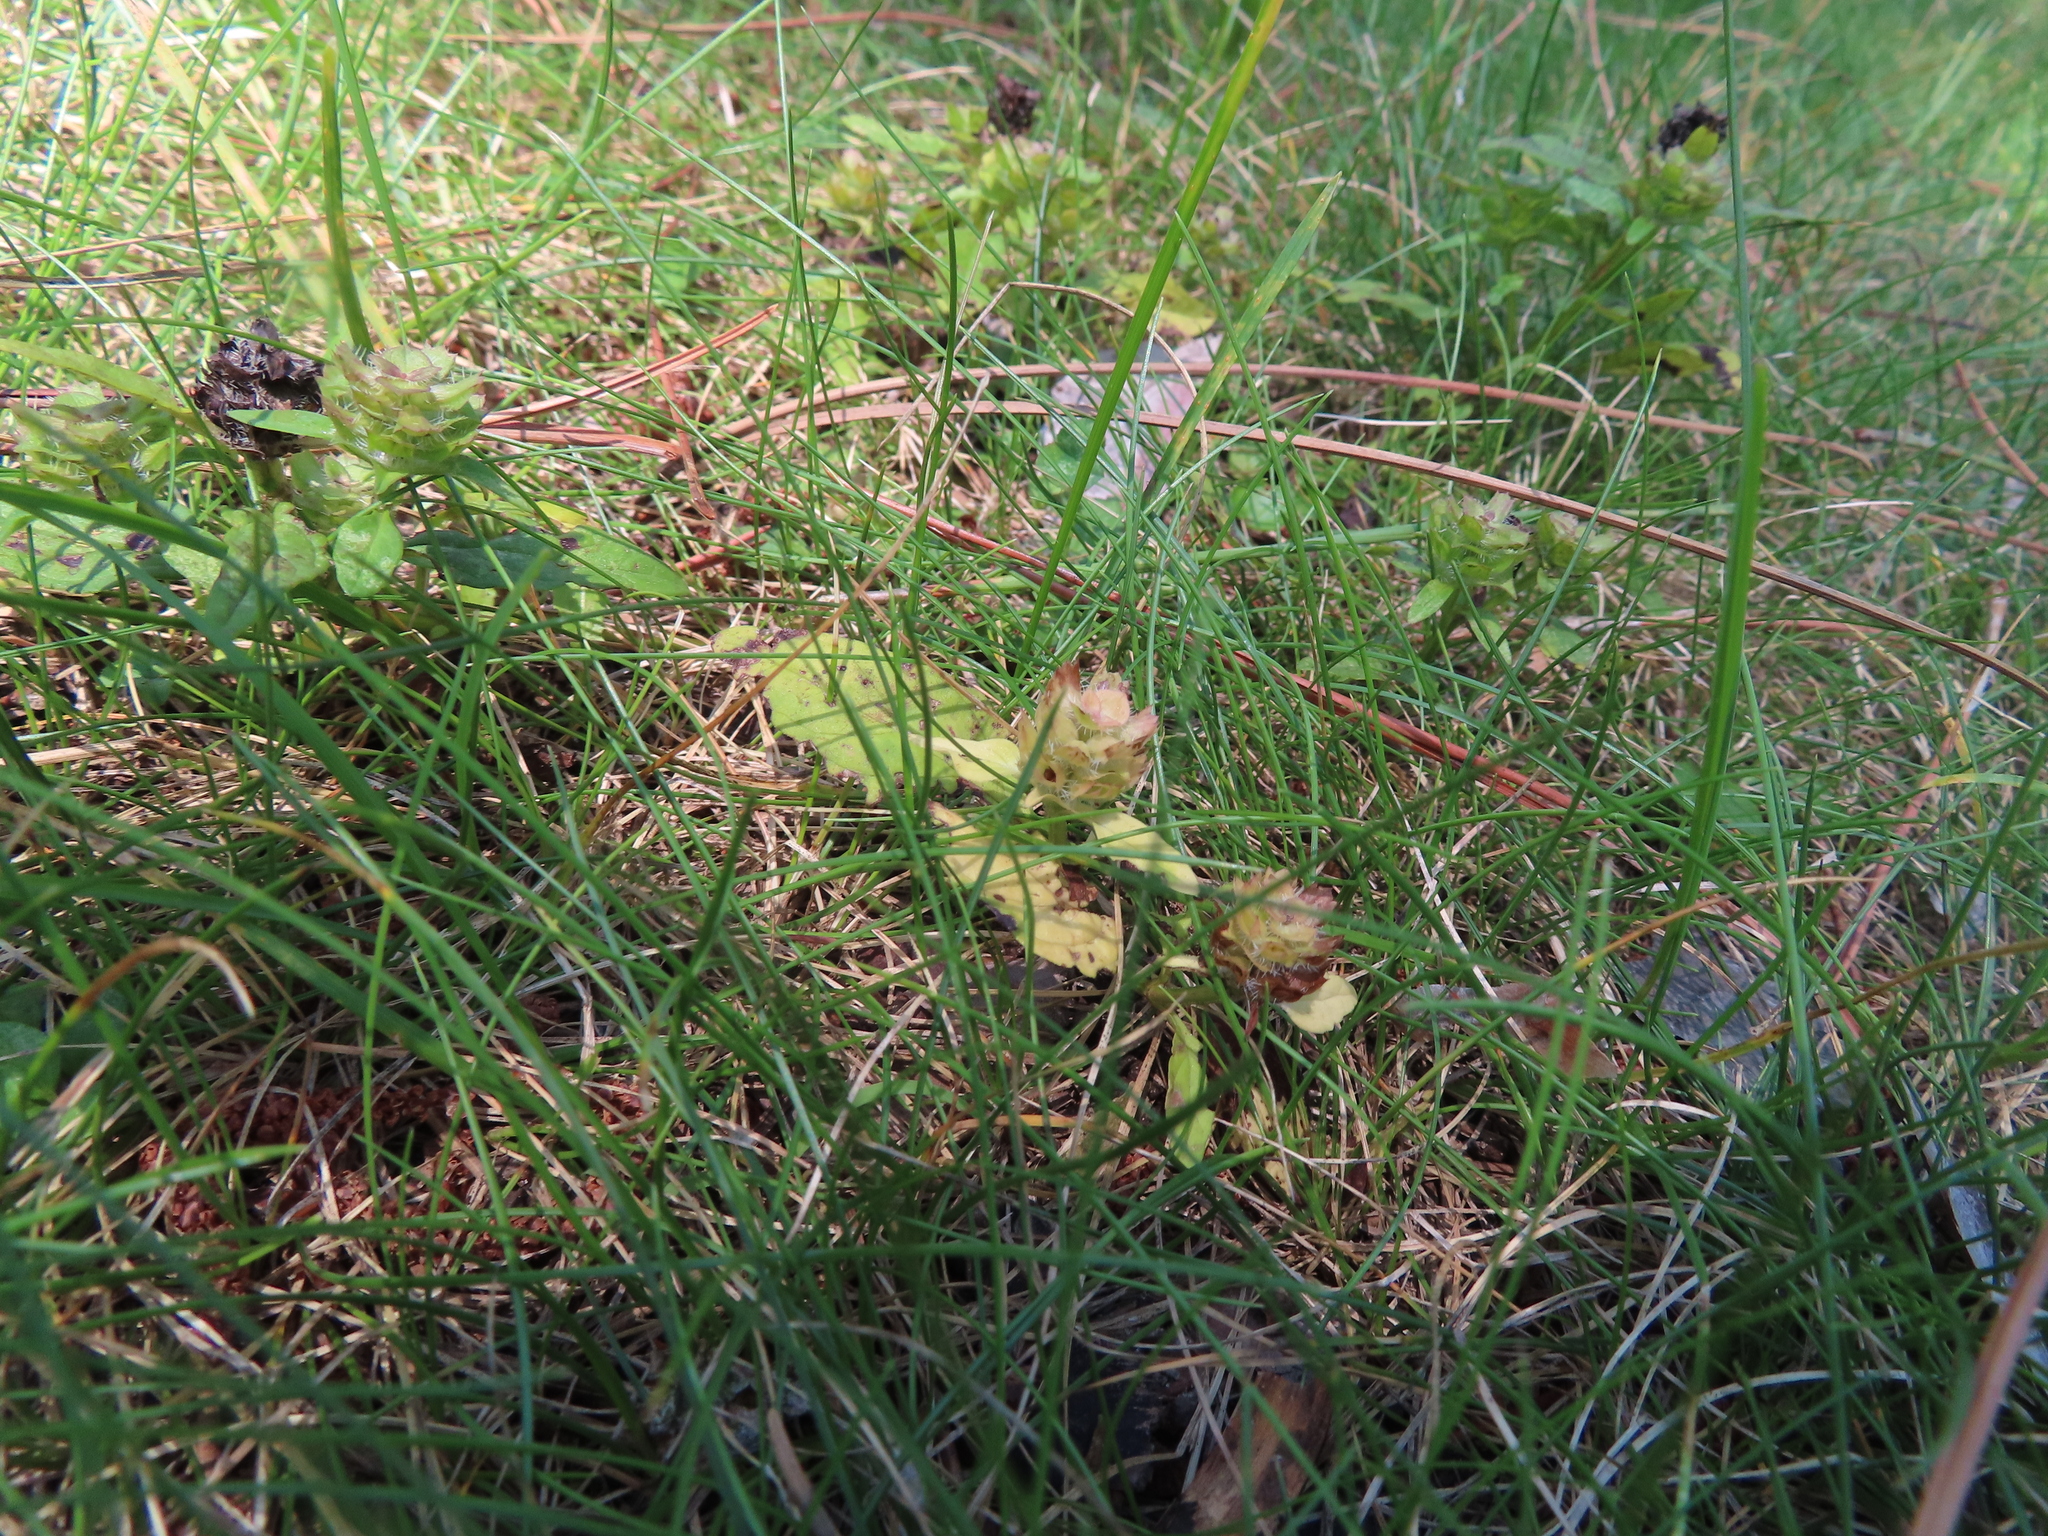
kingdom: Plantae
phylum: Tracheophyta
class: Magnoliopsida
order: Lamiales
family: Lamiaceae
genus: Prunella
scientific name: Prunella vulgaris
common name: Heal-all
